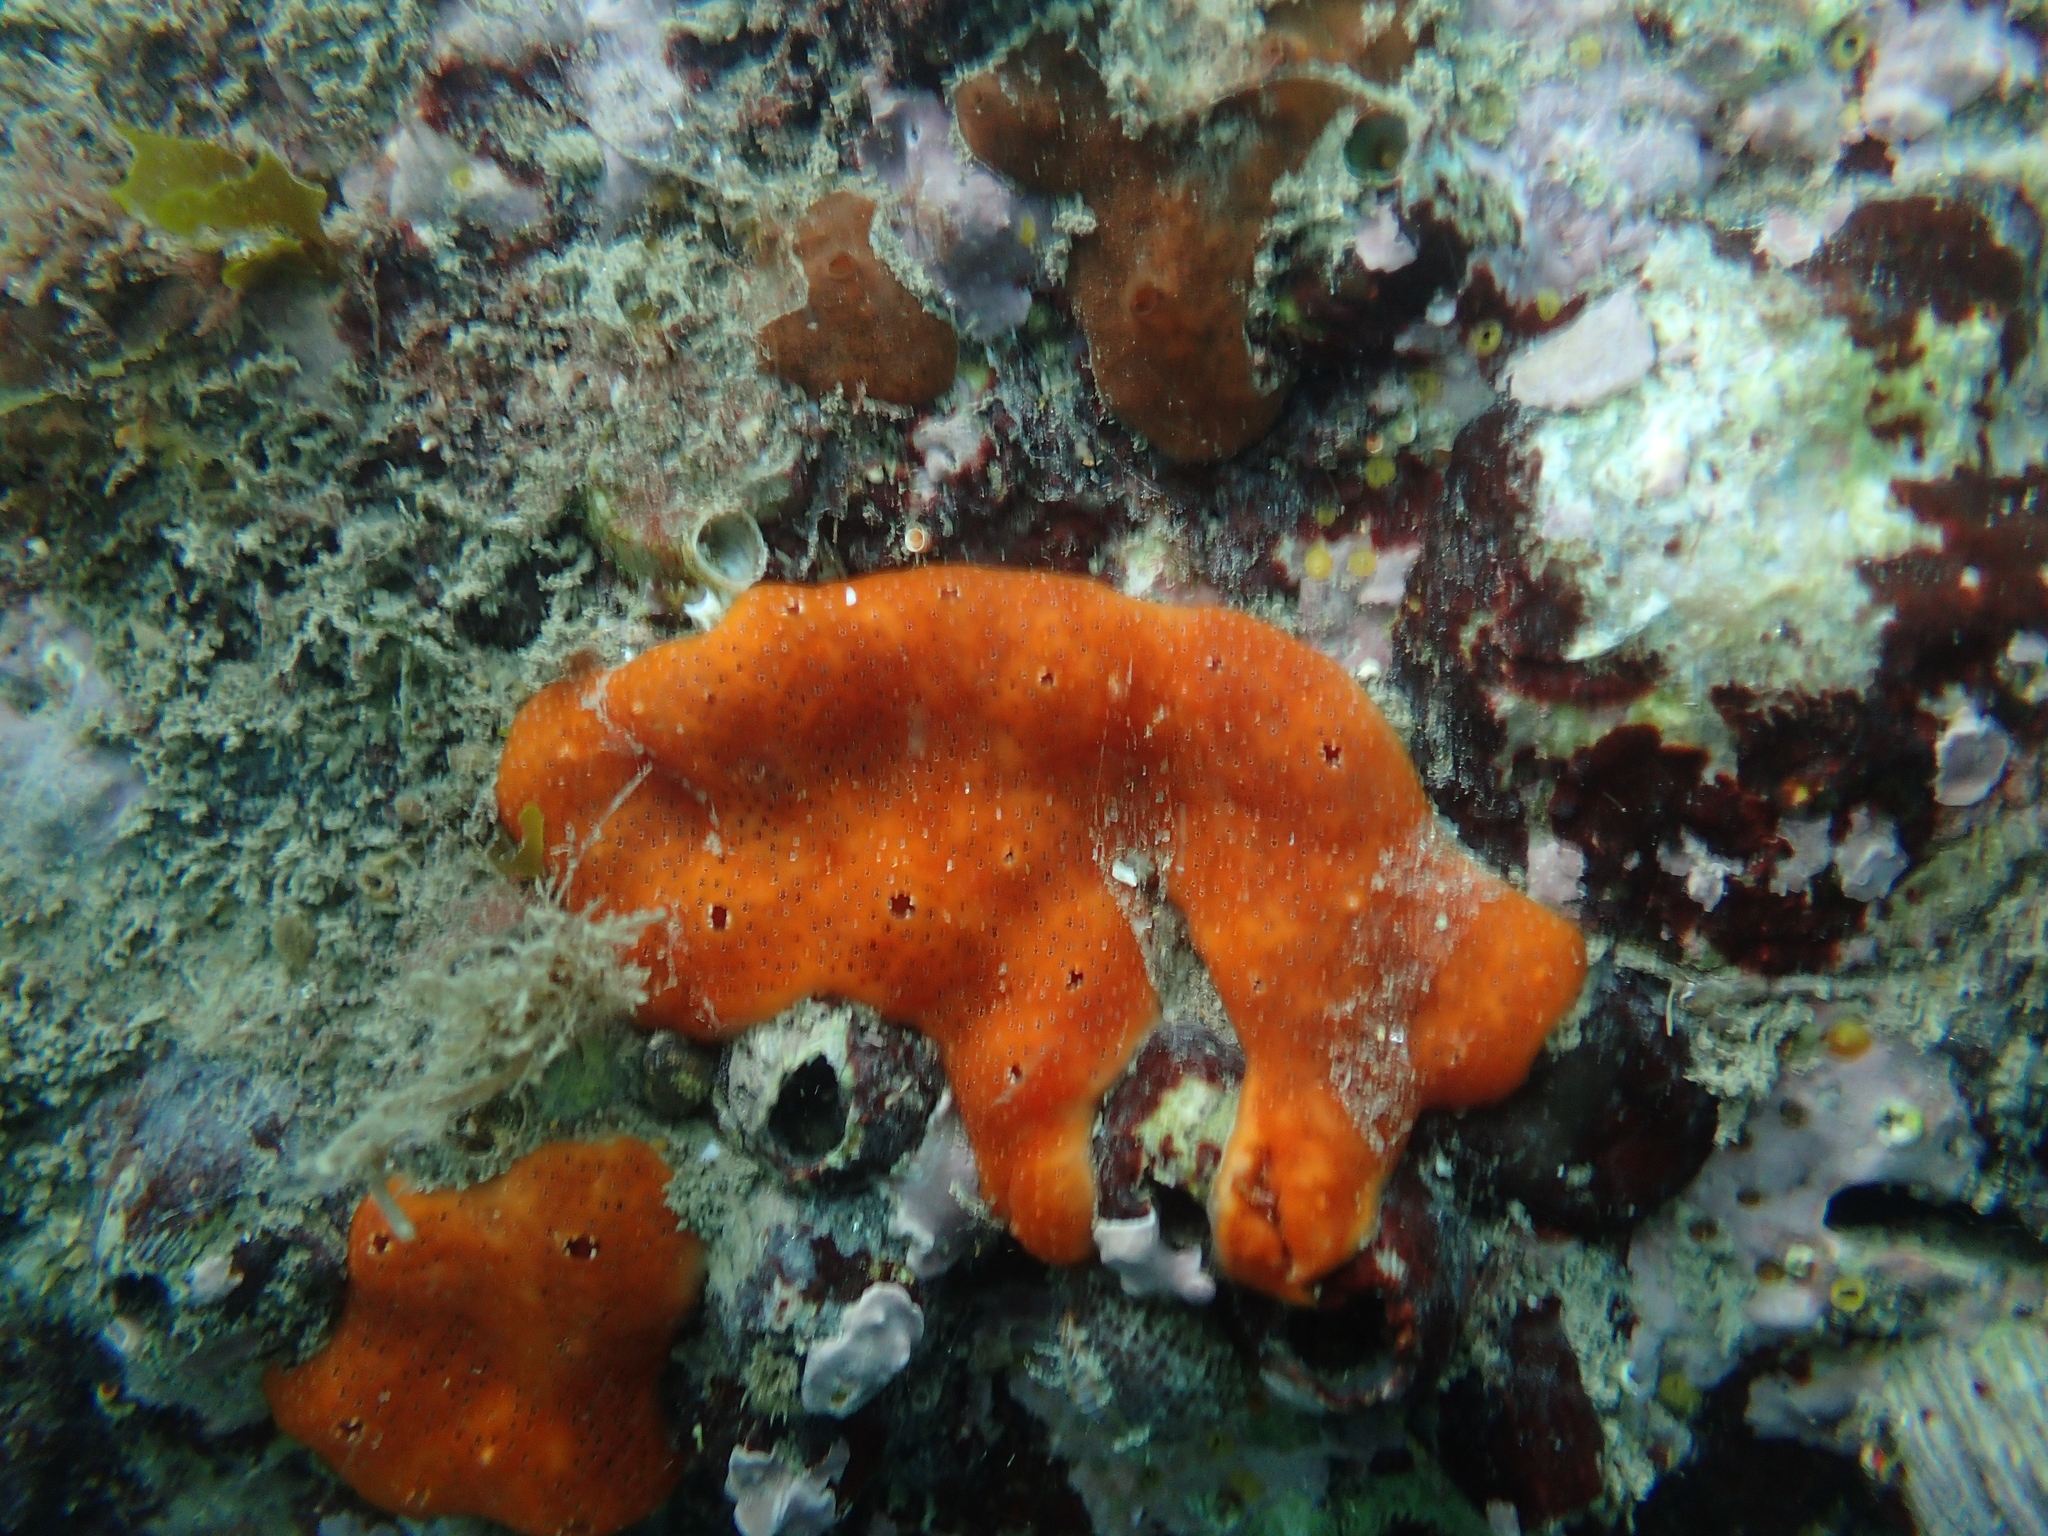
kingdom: Animalia
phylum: Chordata
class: Ascidiacea
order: Aplousobranchia
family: Didemnidae
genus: Polysyncraton
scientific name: Polysyncraton lacazei
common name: Colonial sea squirt
